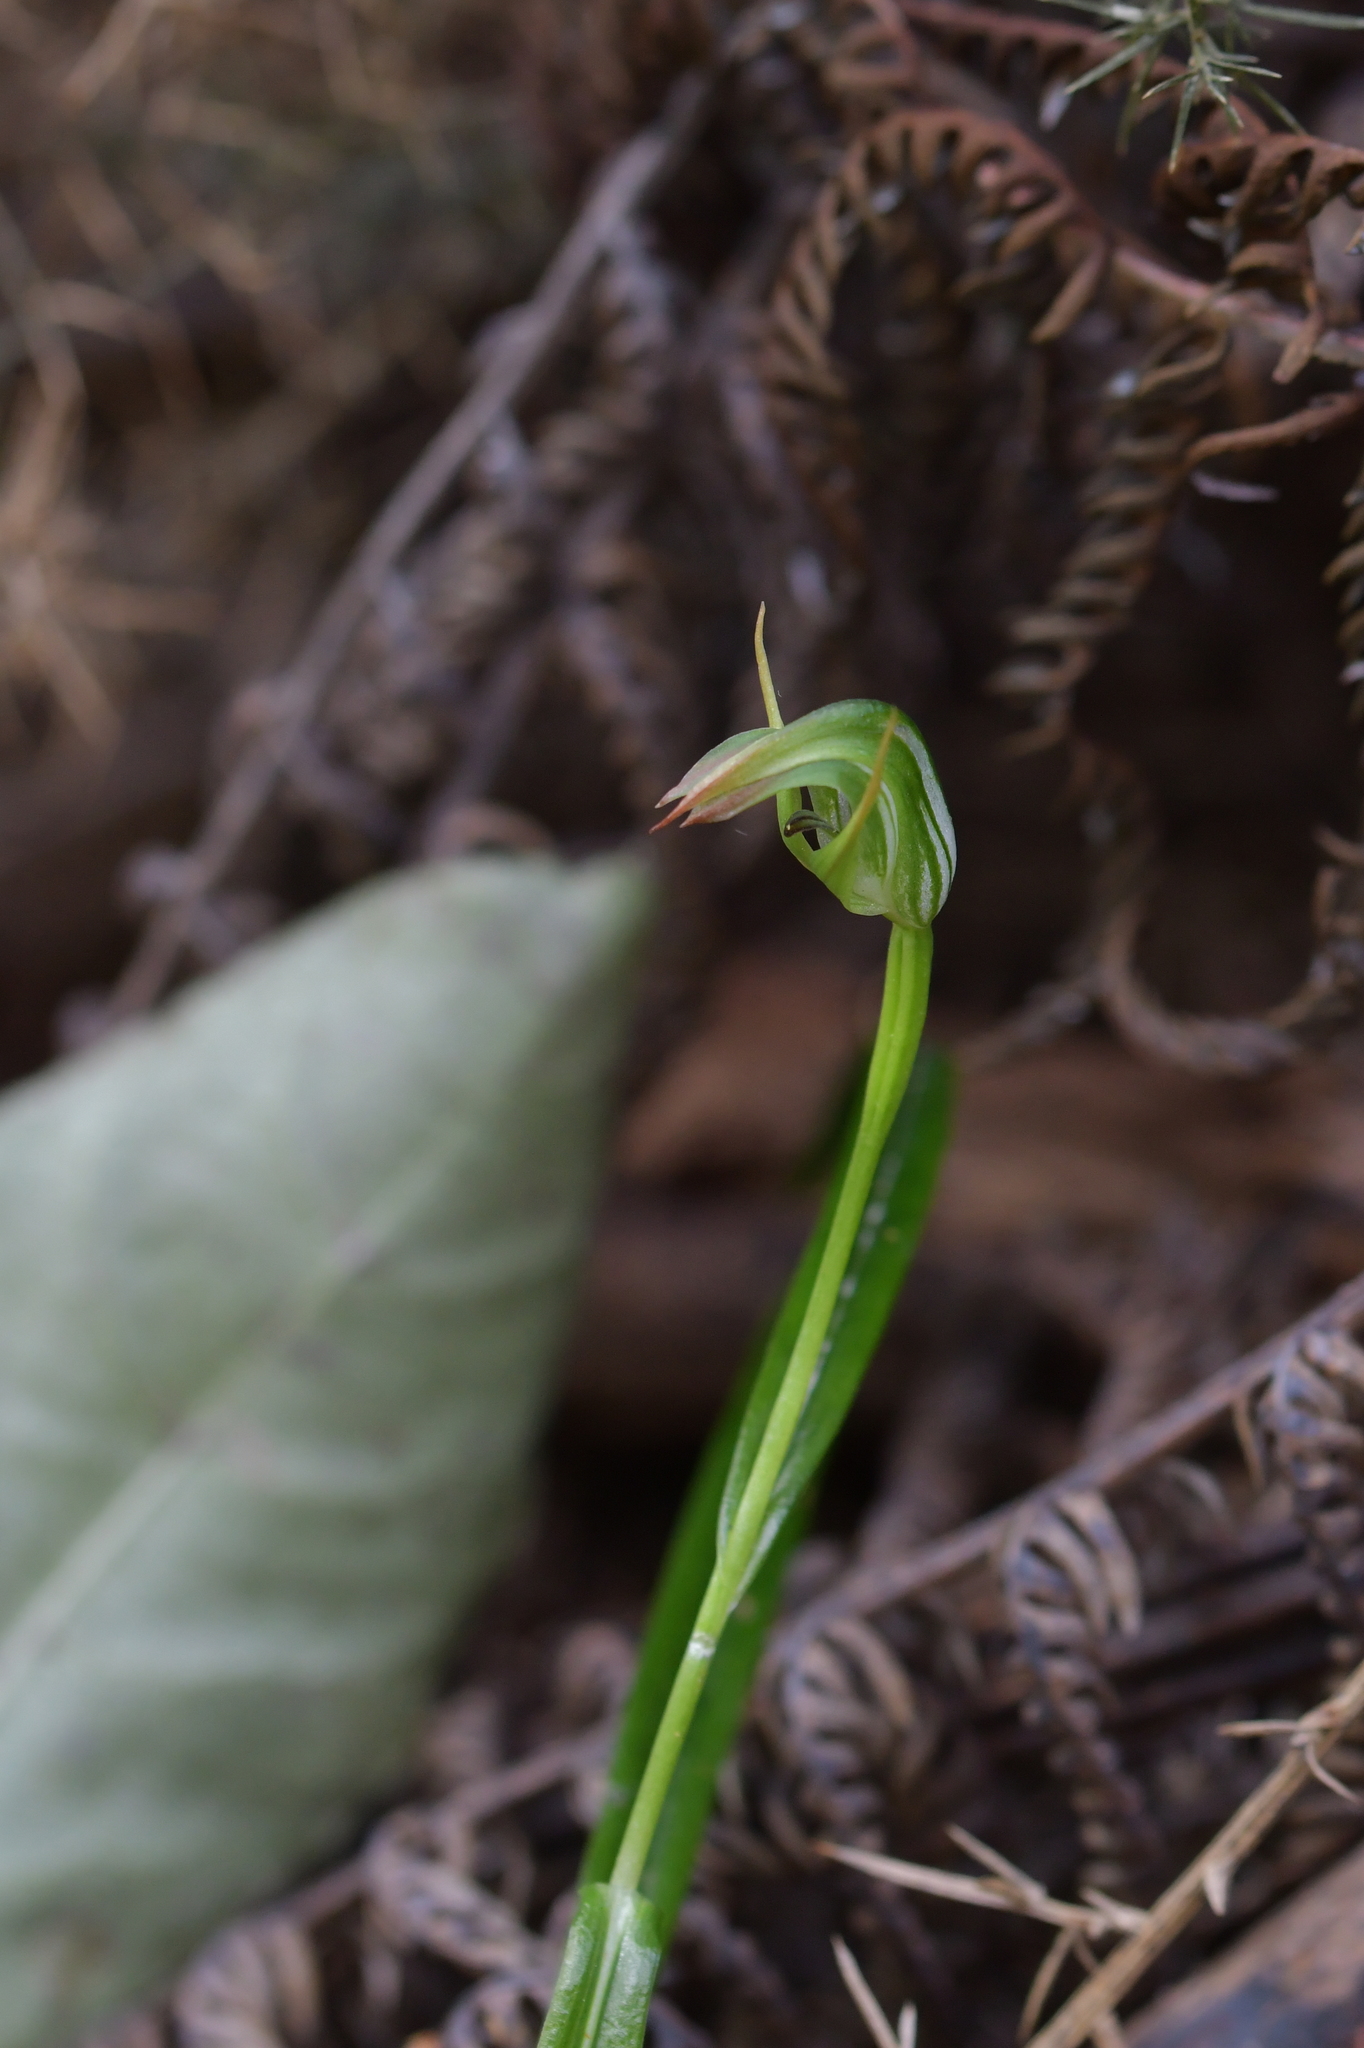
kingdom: Plantae
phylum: Tracheophyta
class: Liliopsida
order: Asparagales
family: Orchidaceae
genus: Pterostylis
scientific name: Pterostylis graminea
